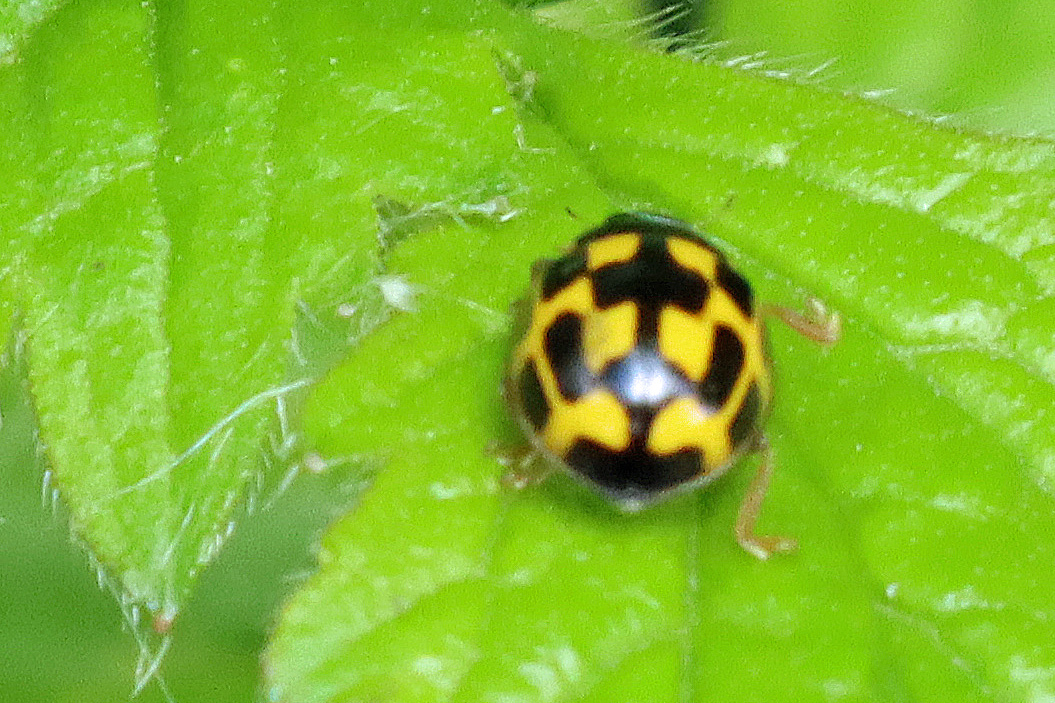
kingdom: Animalia
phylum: Arthropoda
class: Insecta
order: Coleoptera
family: Coccinellidae
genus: Propylaea
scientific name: Propylaea quatuordecimpunctata
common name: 14-spotted ladybird beetle
